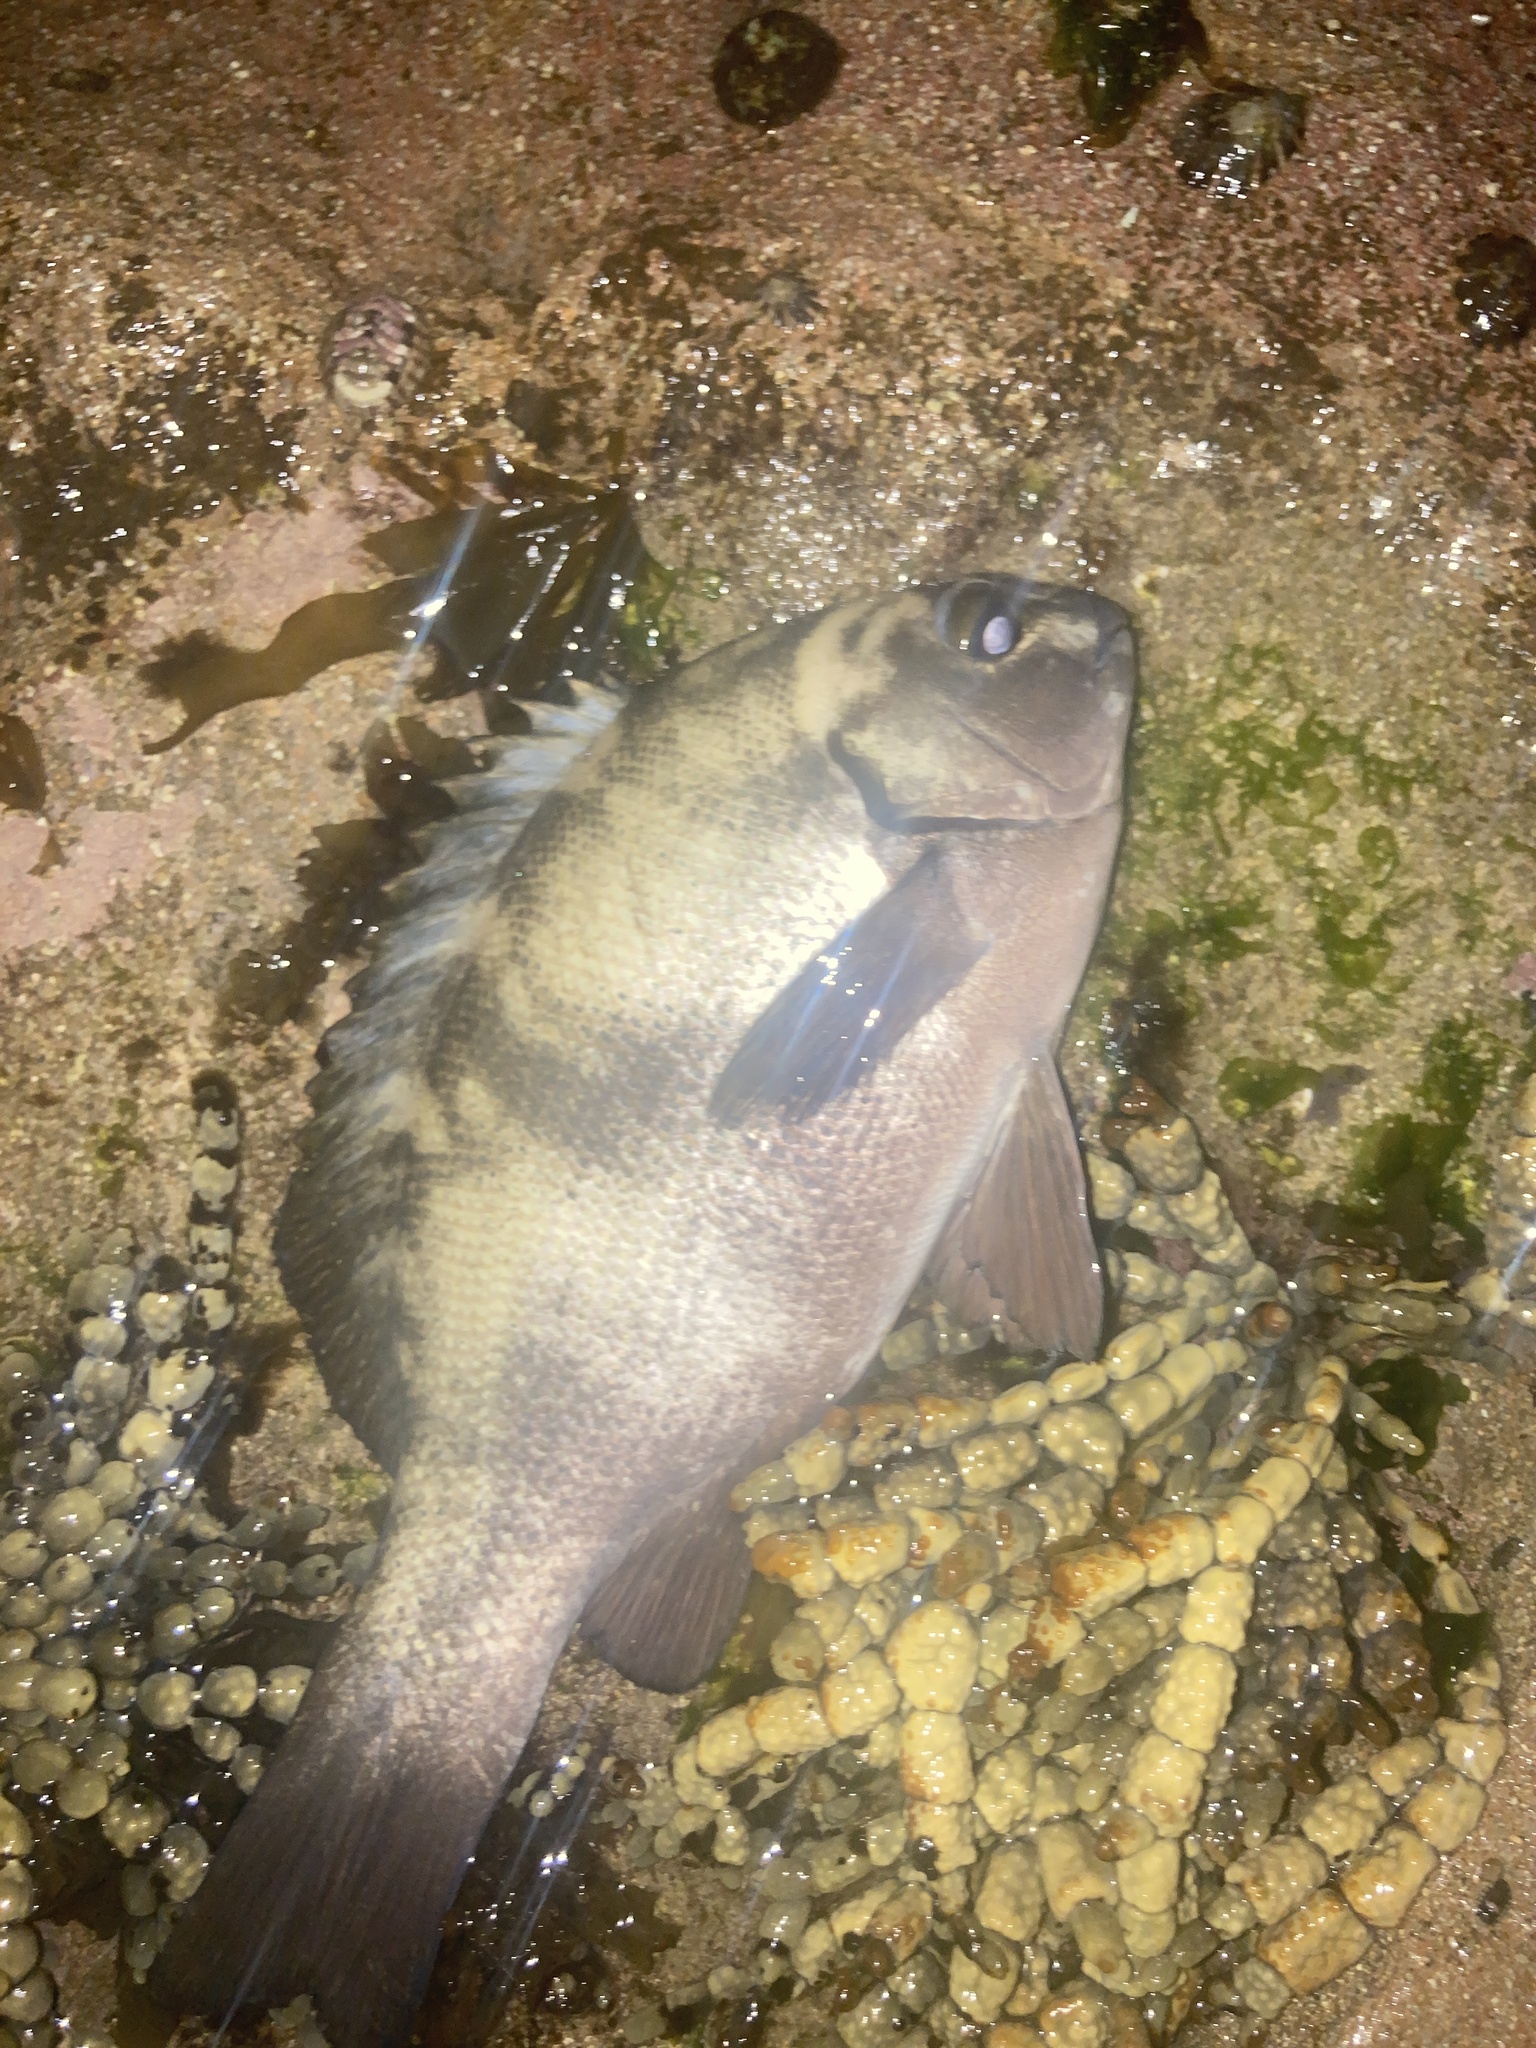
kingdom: Animalia
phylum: Chordata
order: Perciformes
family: Kyphosidae
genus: Girella
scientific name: Girella elevata
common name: Black bream
